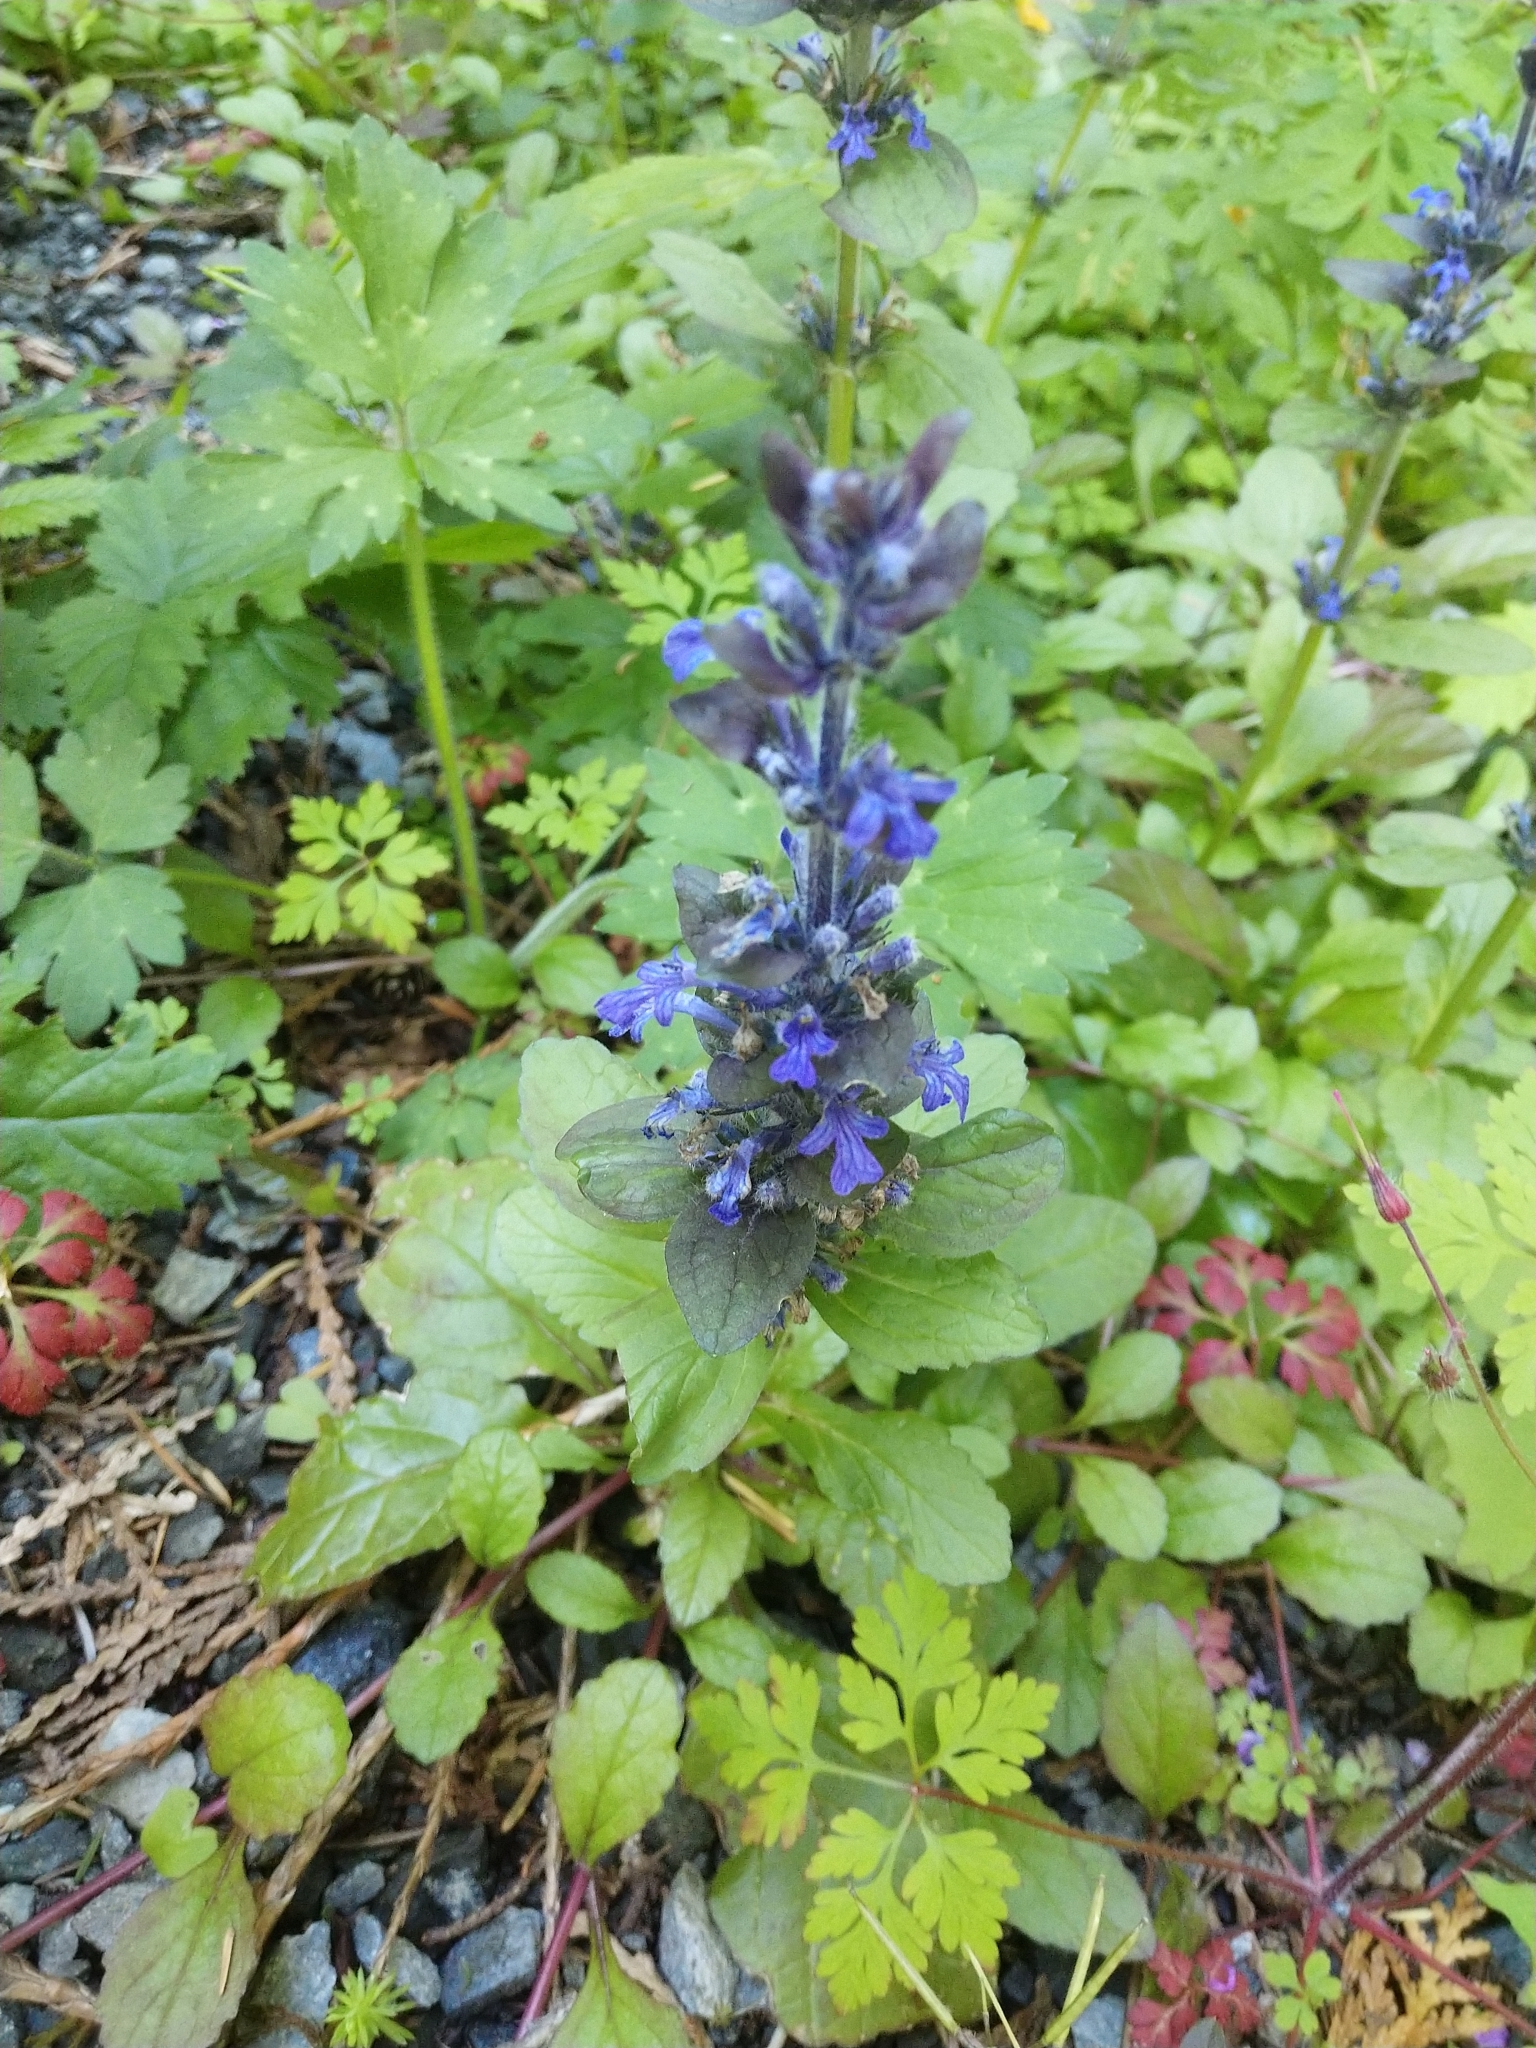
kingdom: Plantae
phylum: Tracheophyta
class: Magnoliopsida
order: Lamiales
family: Lamiaceae
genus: Ajuga
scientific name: Ajuga reptans
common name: Bugle
